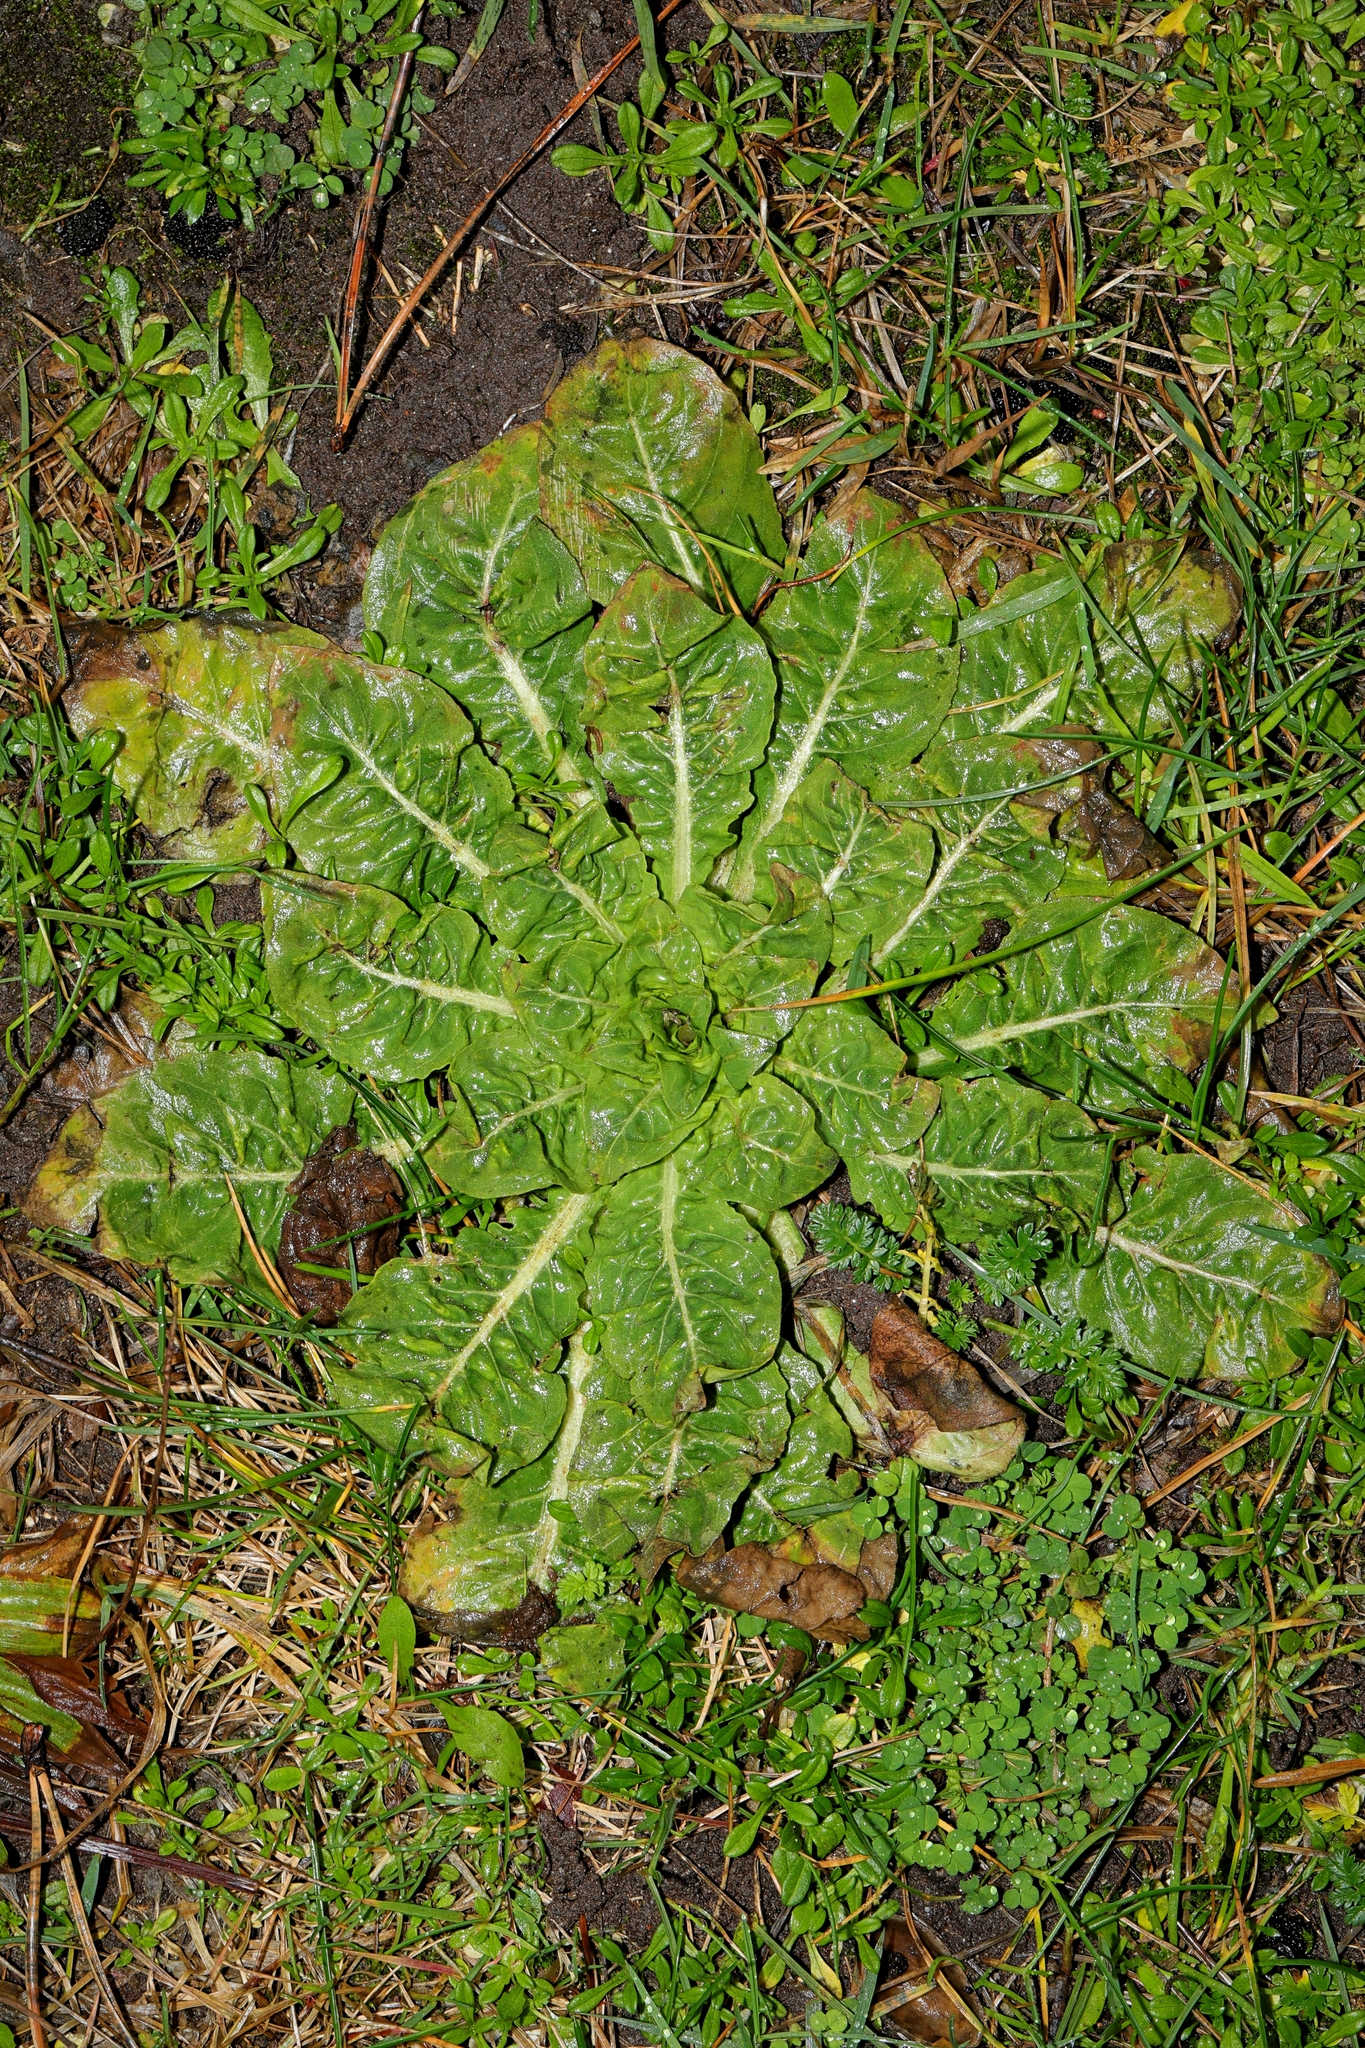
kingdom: Plantae
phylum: Tracheophyta
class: Magnoliopsida
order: Dipsacales
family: Caprifoliaceae
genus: Dipsacus
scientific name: Dipsacus fullonum
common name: Teasel
